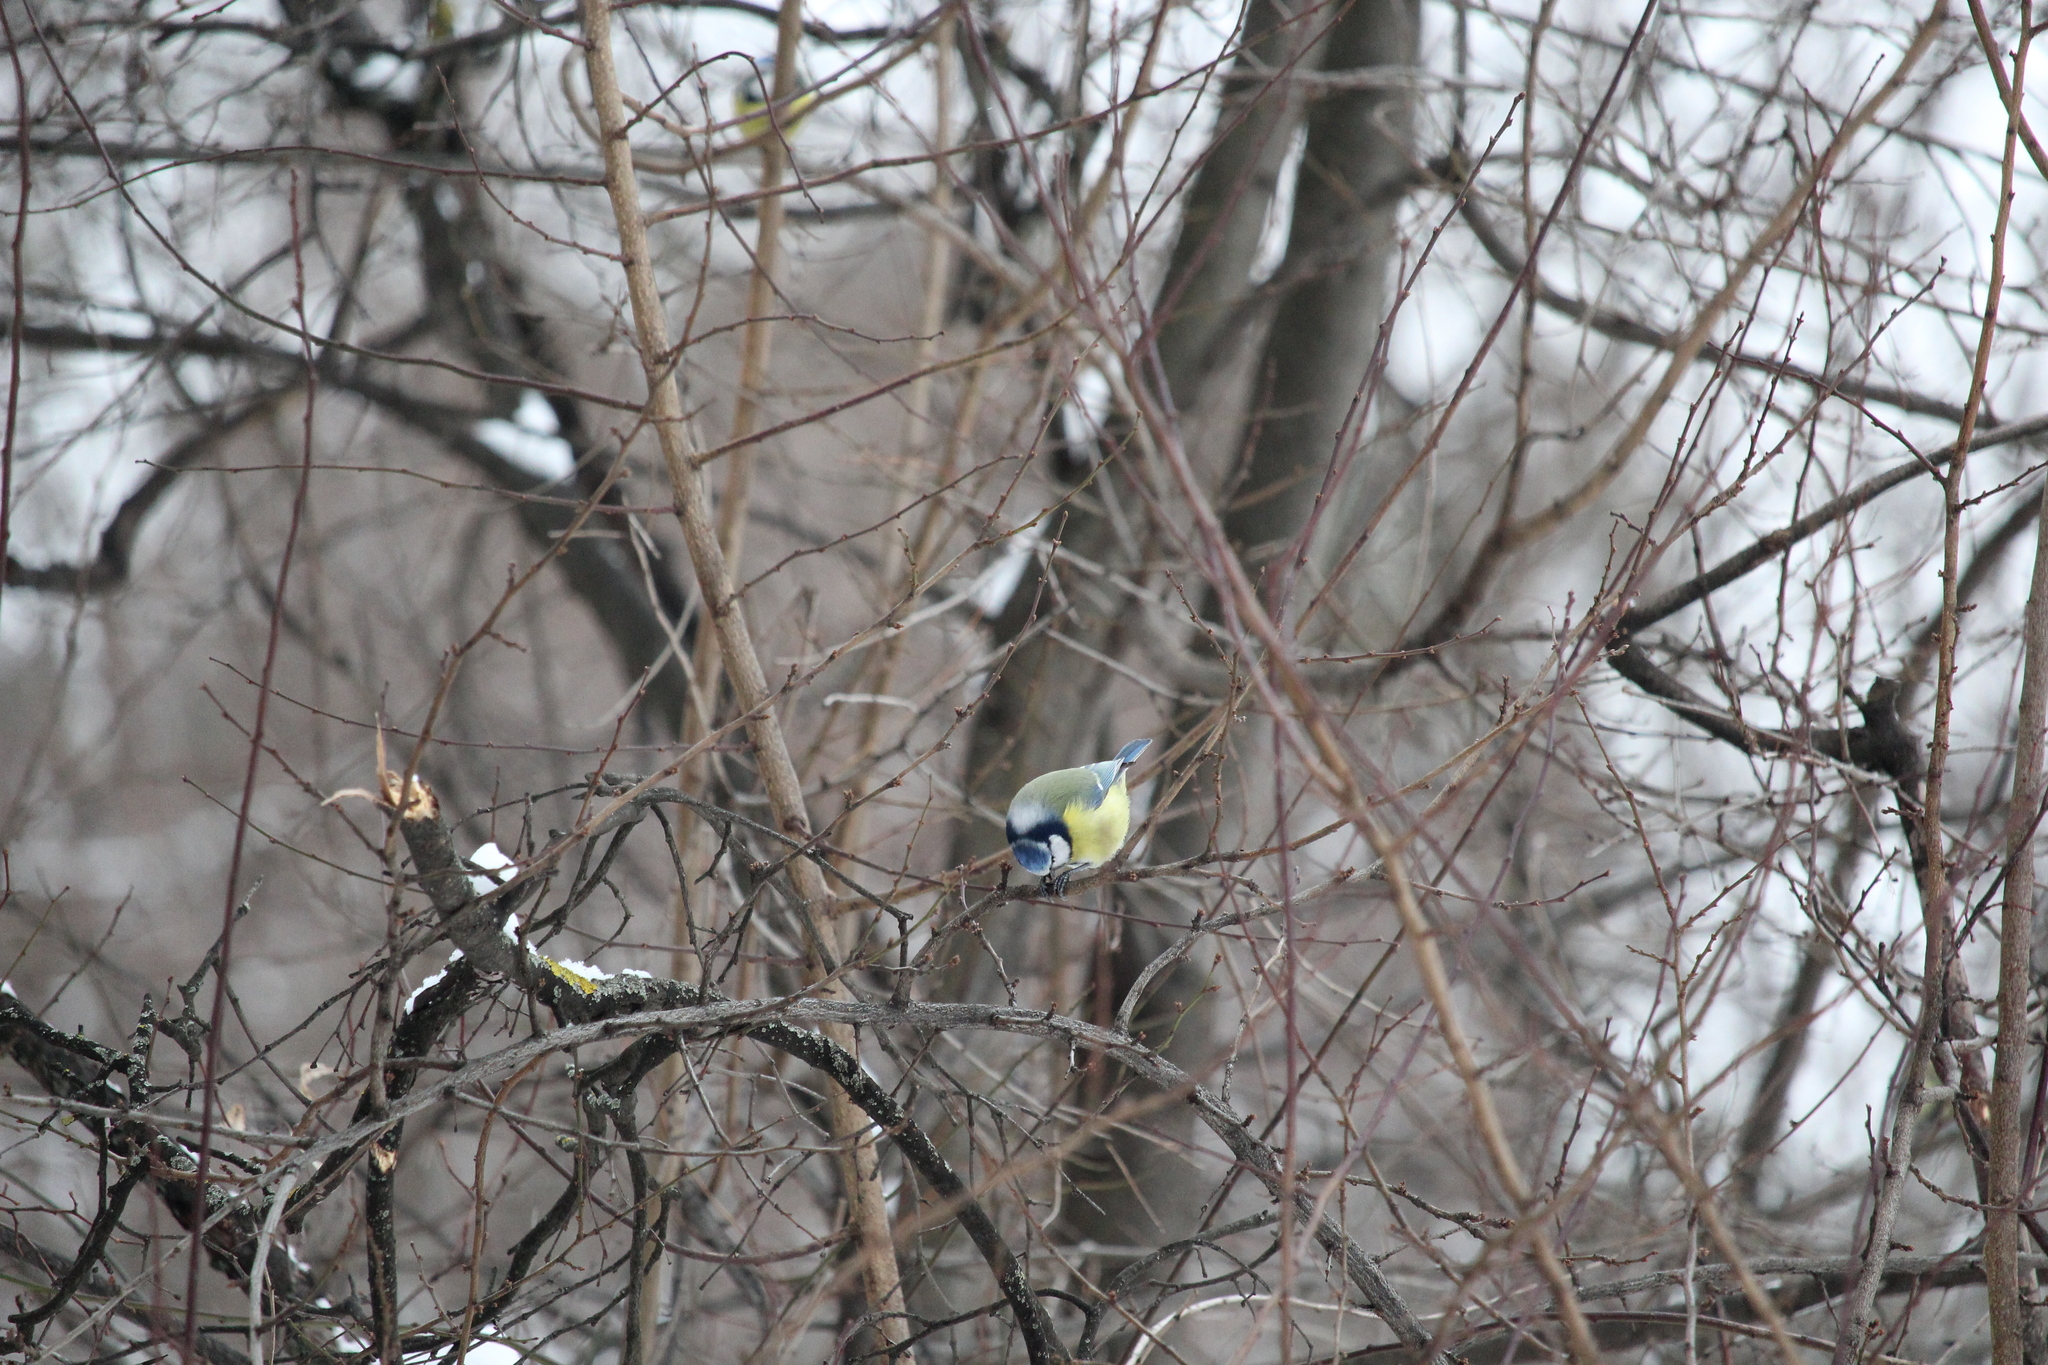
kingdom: Animalia
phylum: Chordata
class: Aves
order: Passeriformes
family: Paridae
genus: Cyanistes
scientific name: Cyanistes caeruleus
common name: Eurasian blue tit
